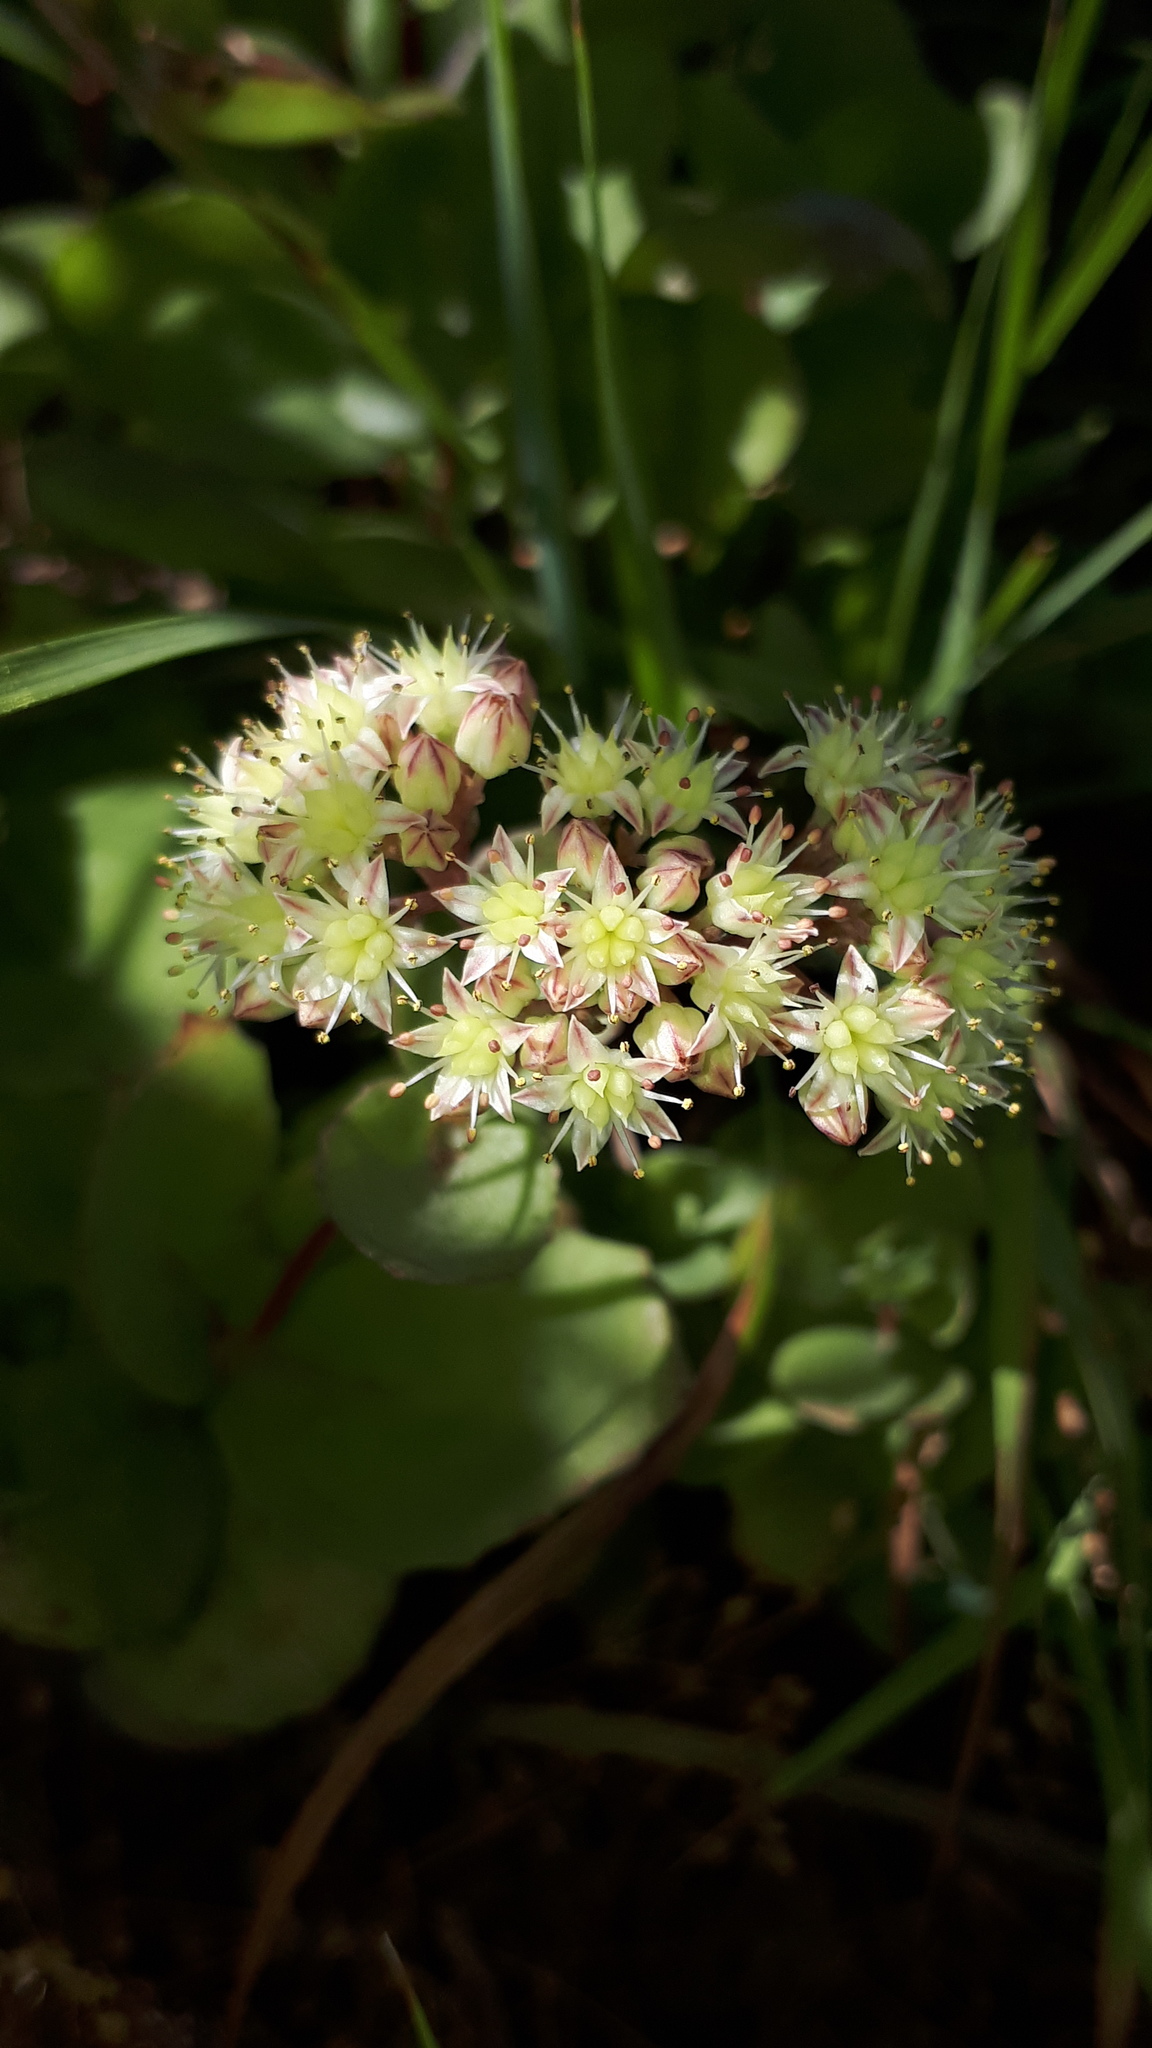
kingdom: Plantae
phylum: Tracheophyta
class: Magnoliopsida
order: Saxifragales
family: Crassulaceae
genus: Hylotelephium
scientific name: Hylotelephium maximum
